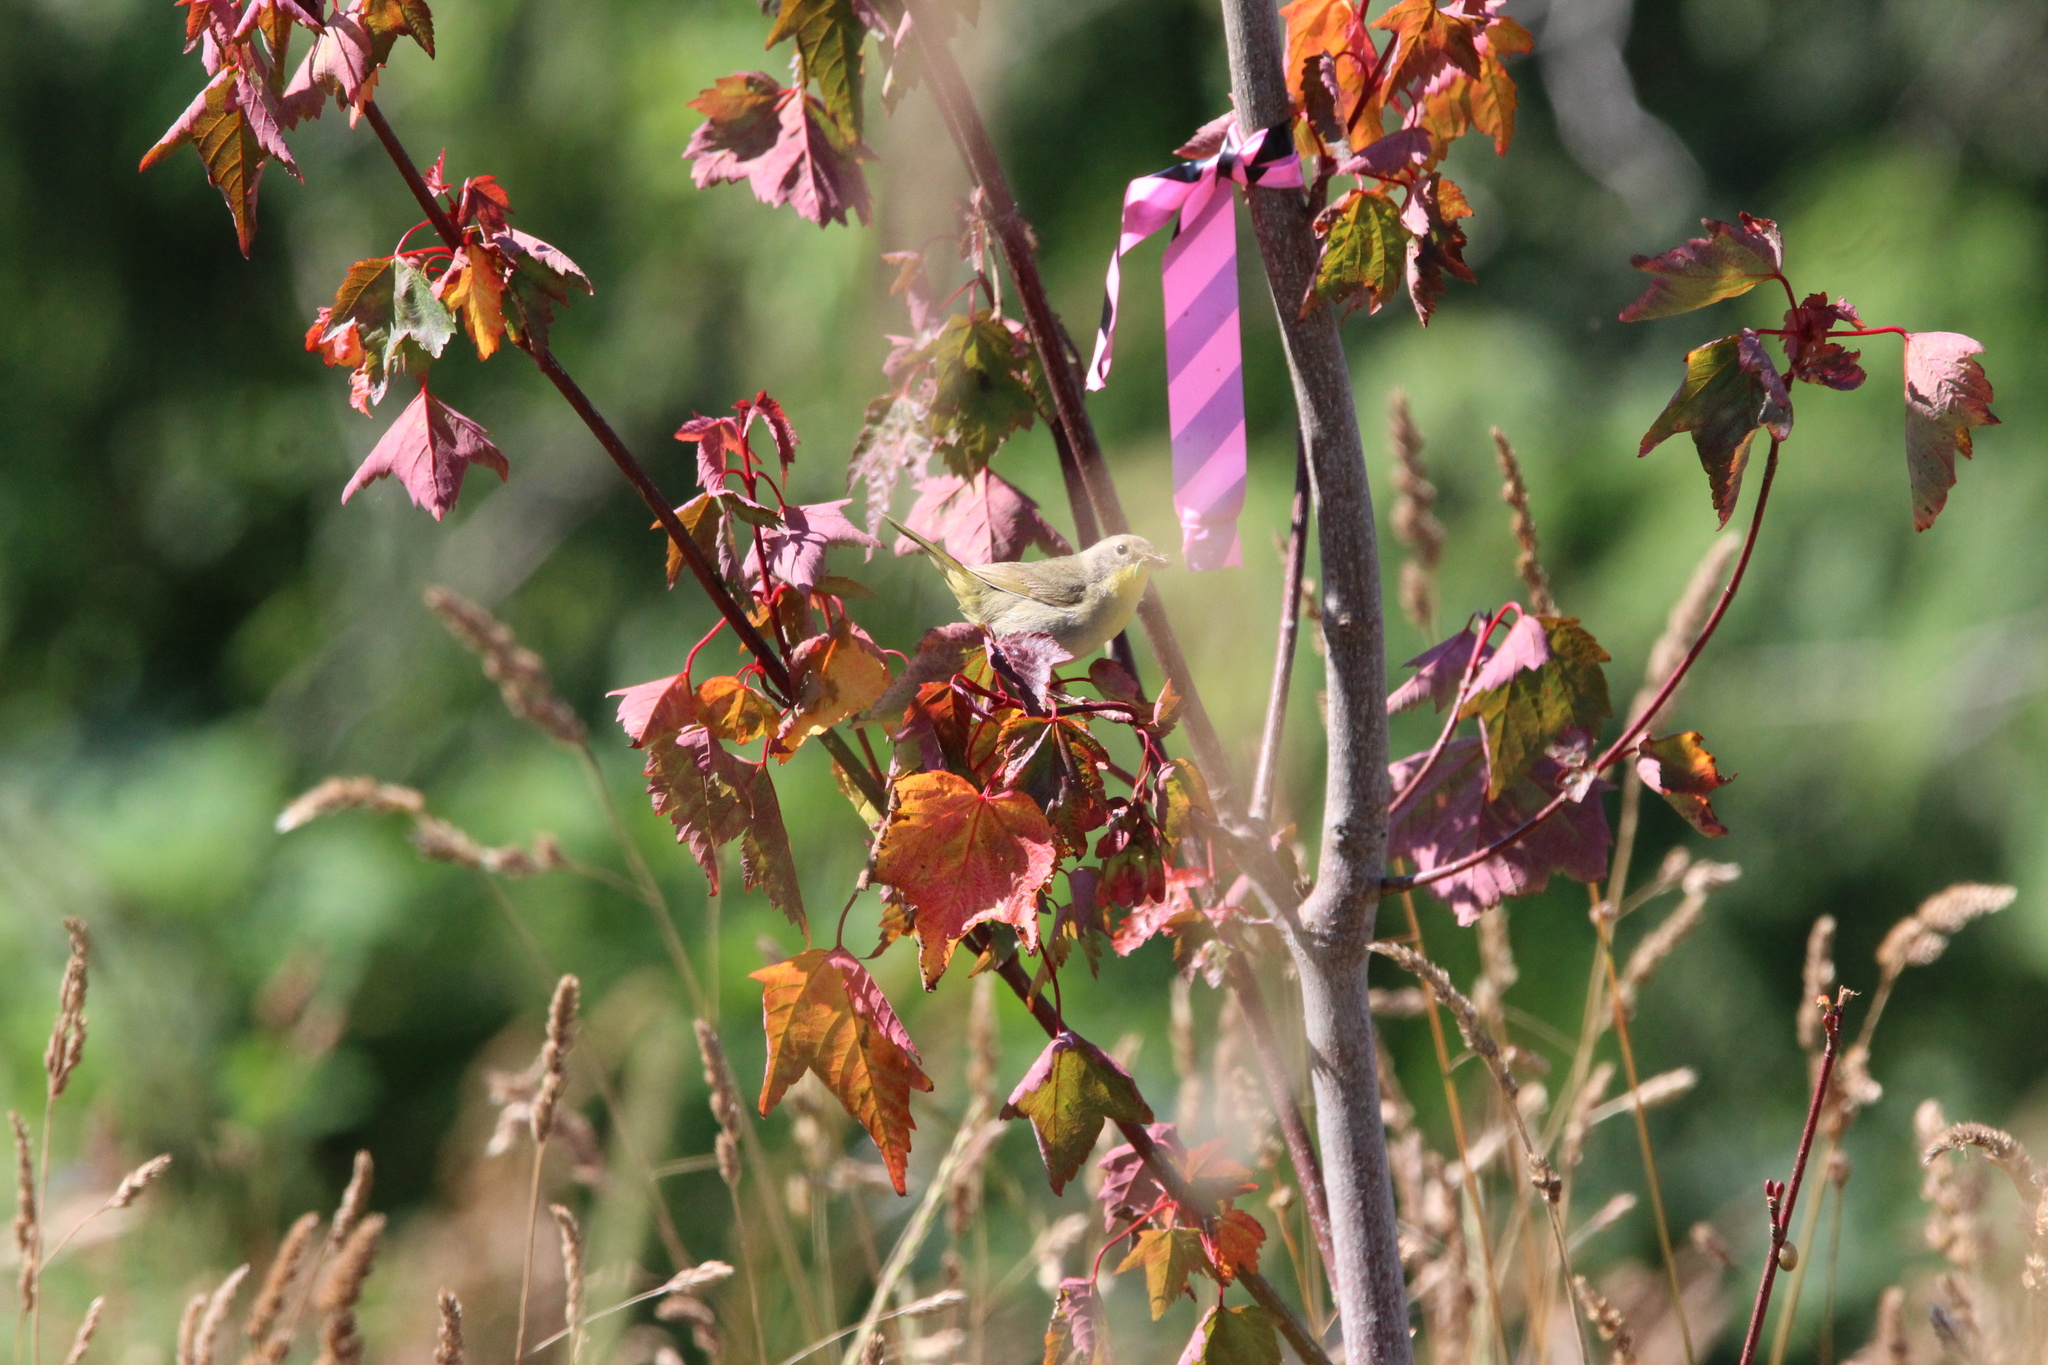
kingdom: Animalia
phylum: Chordata
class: Aves
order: Passeriformes
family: Parulidae
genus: Geothlypis
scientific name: Geothlypis trichas
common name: Common yellowthroat
